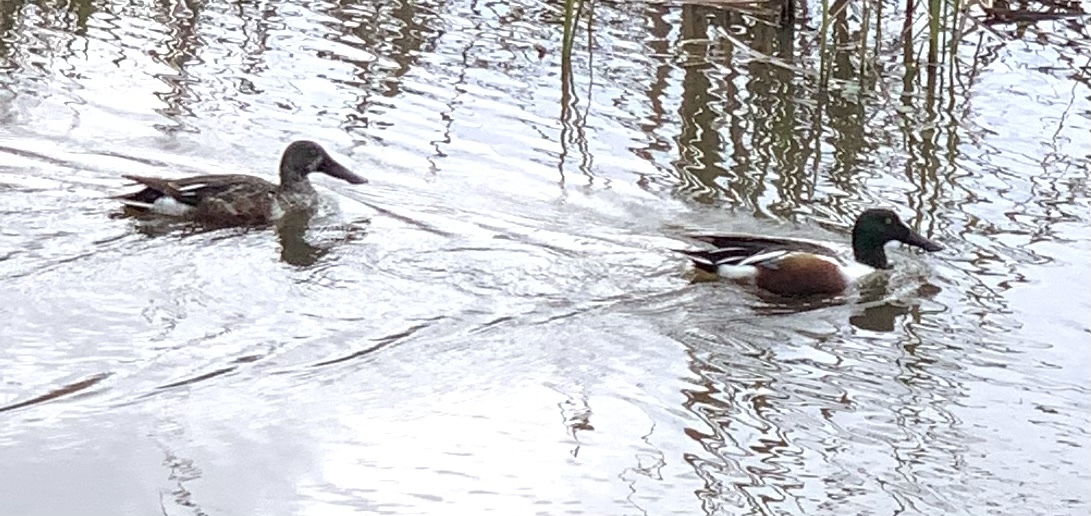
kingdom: Animalia
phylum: Chordata
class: Aves
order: Anseriformes
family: Anatidae
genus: Spatula
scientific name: Spatula clypeata
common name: Northern shoveler
